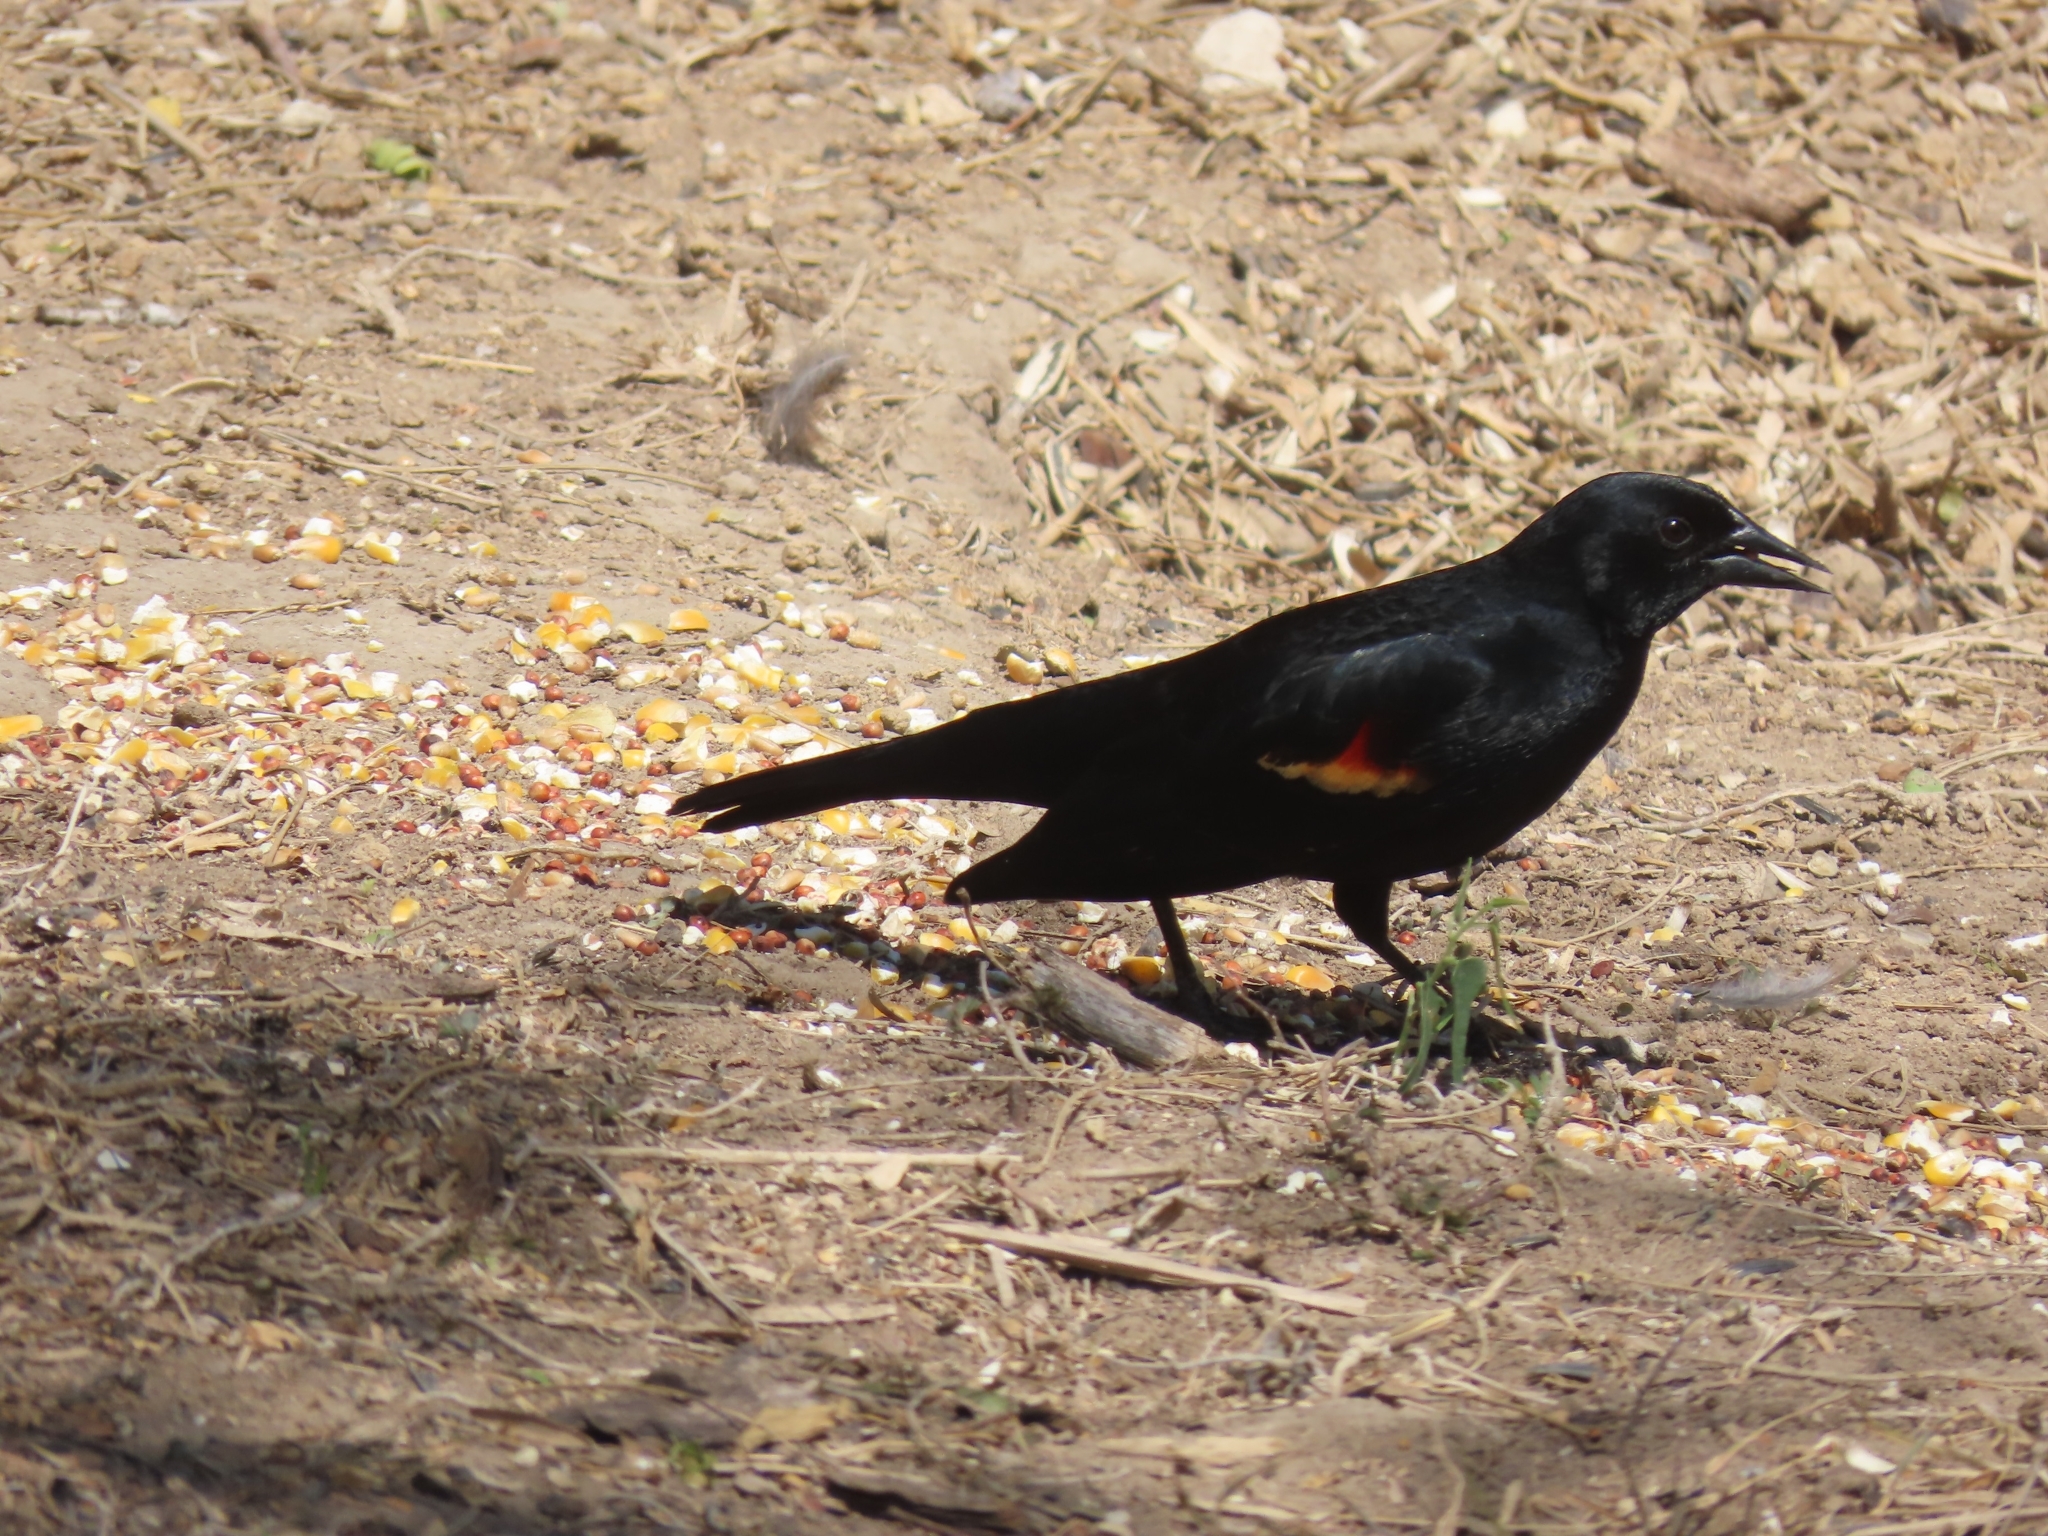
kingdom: Animalia
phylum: Chordata
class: Aves
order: Passeriformes
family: Icteridae
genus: Agelaius
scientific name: Agelaius phoeniceus
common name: Red-winged blackbird
